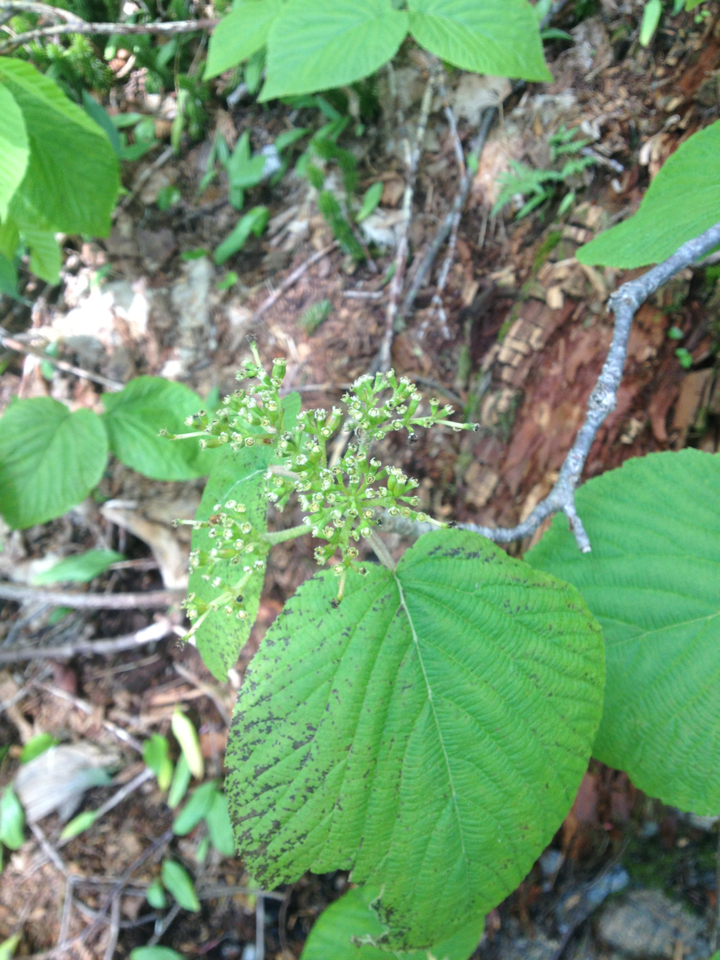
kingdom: Plantae
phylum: Tracheophyta
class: Magnoliopsida
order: Dipsacales
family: Viburnaceae
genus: Viburnum
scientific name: Viburnum lantanoides
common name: Hobblebush
